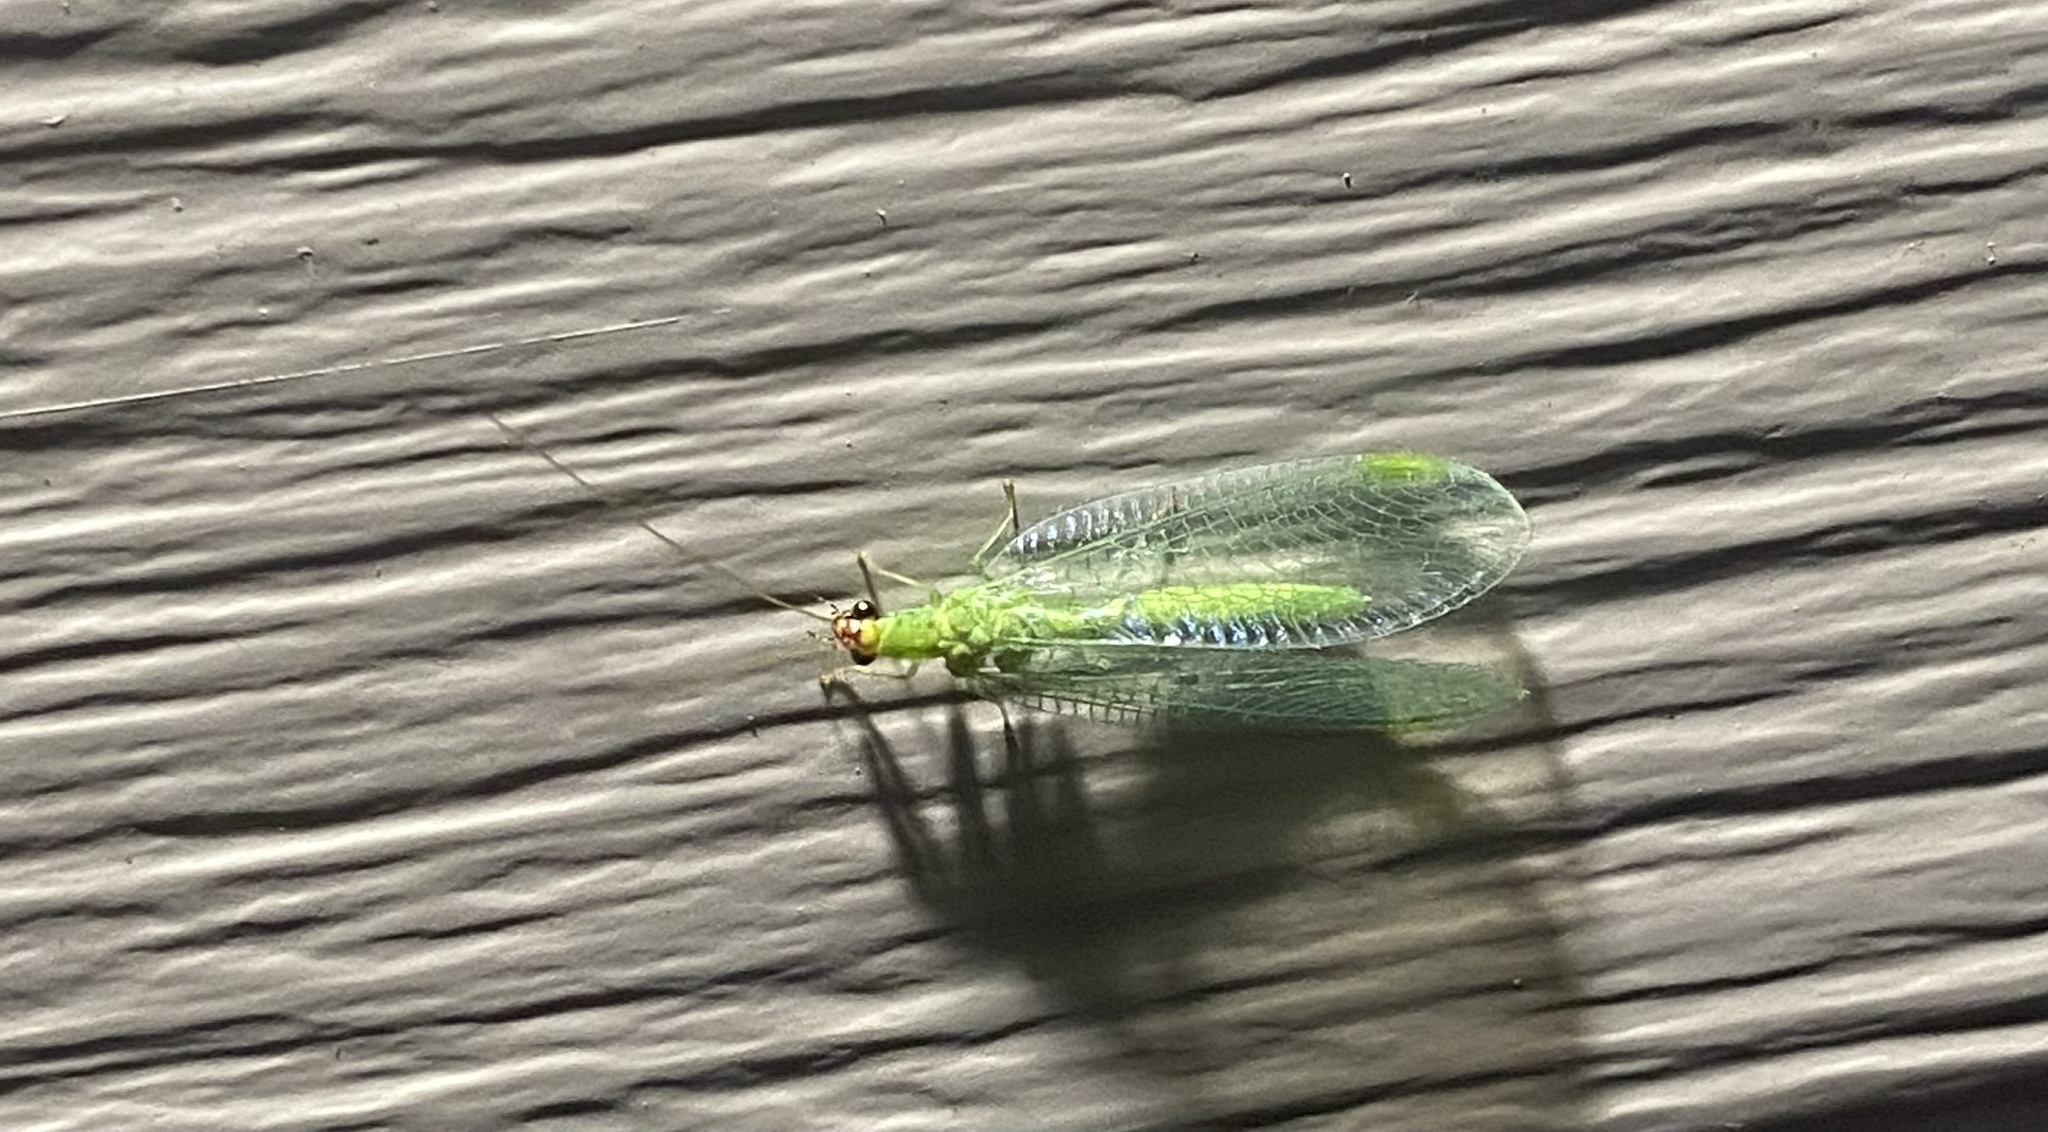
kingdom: Animalia
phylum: Arthropoda
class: Insecta
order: Neuroptera
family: Chrysopidae
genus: Chrysopa
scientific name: Chrysopa oculata
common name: Golden-eyed lacewing
